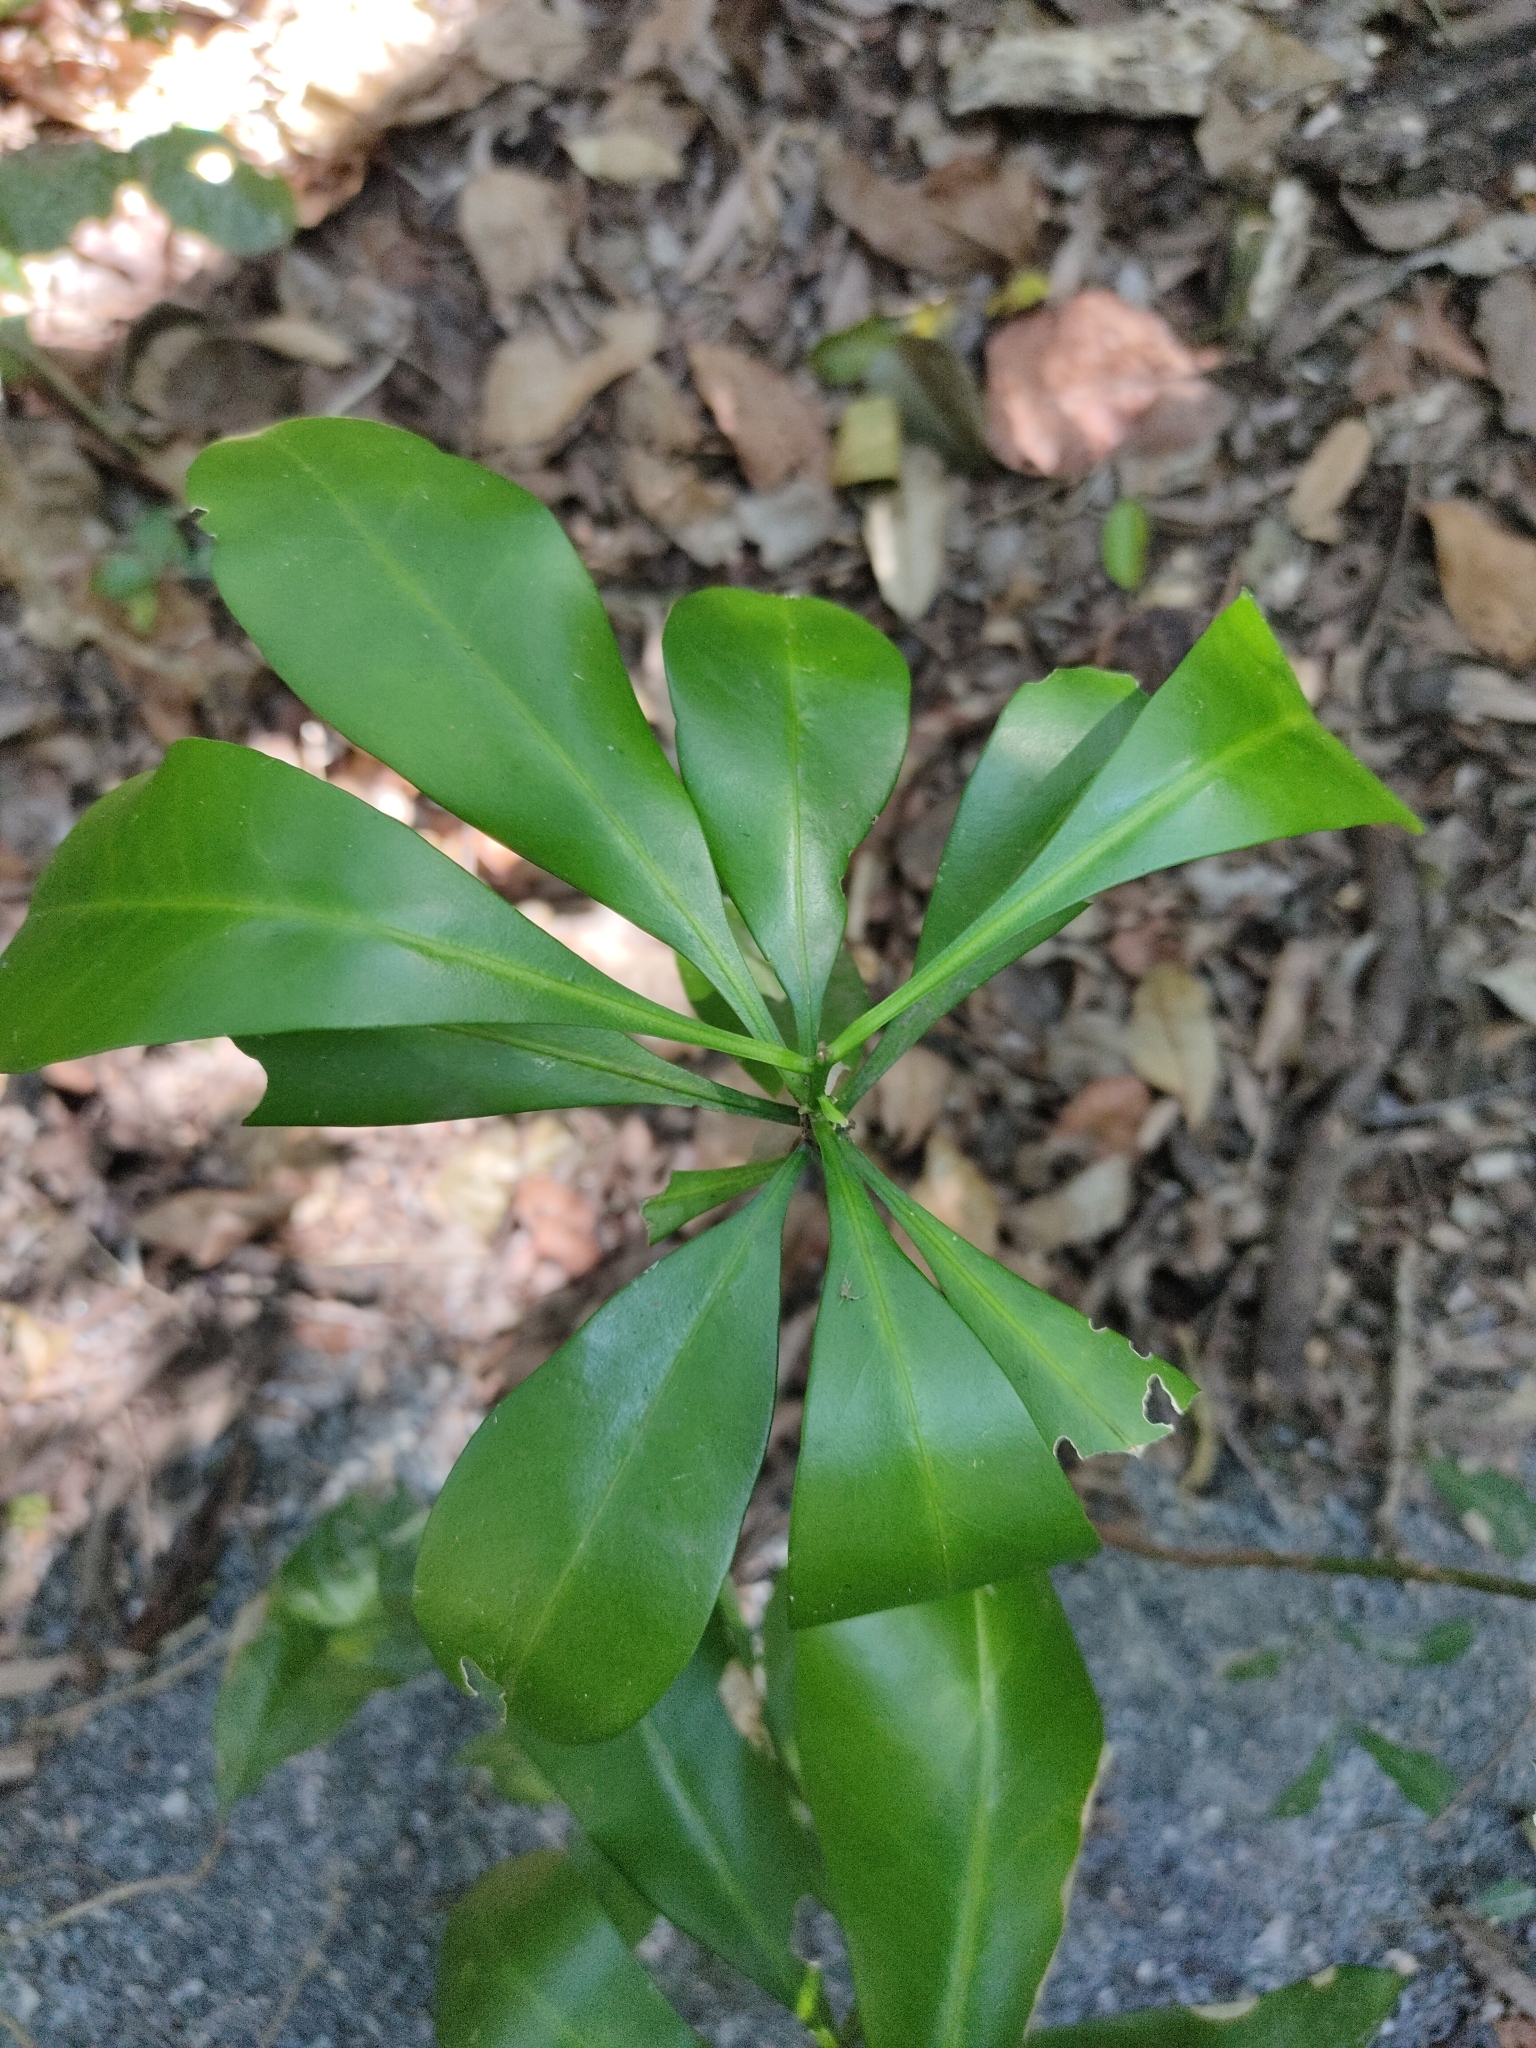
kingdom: Plantae
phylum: Tracheophyta
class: Magnoliopsida
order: Sapindales
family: Rutaceae
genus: Halfordia
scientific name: Halfordia kendack
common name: Southern ghittoe
